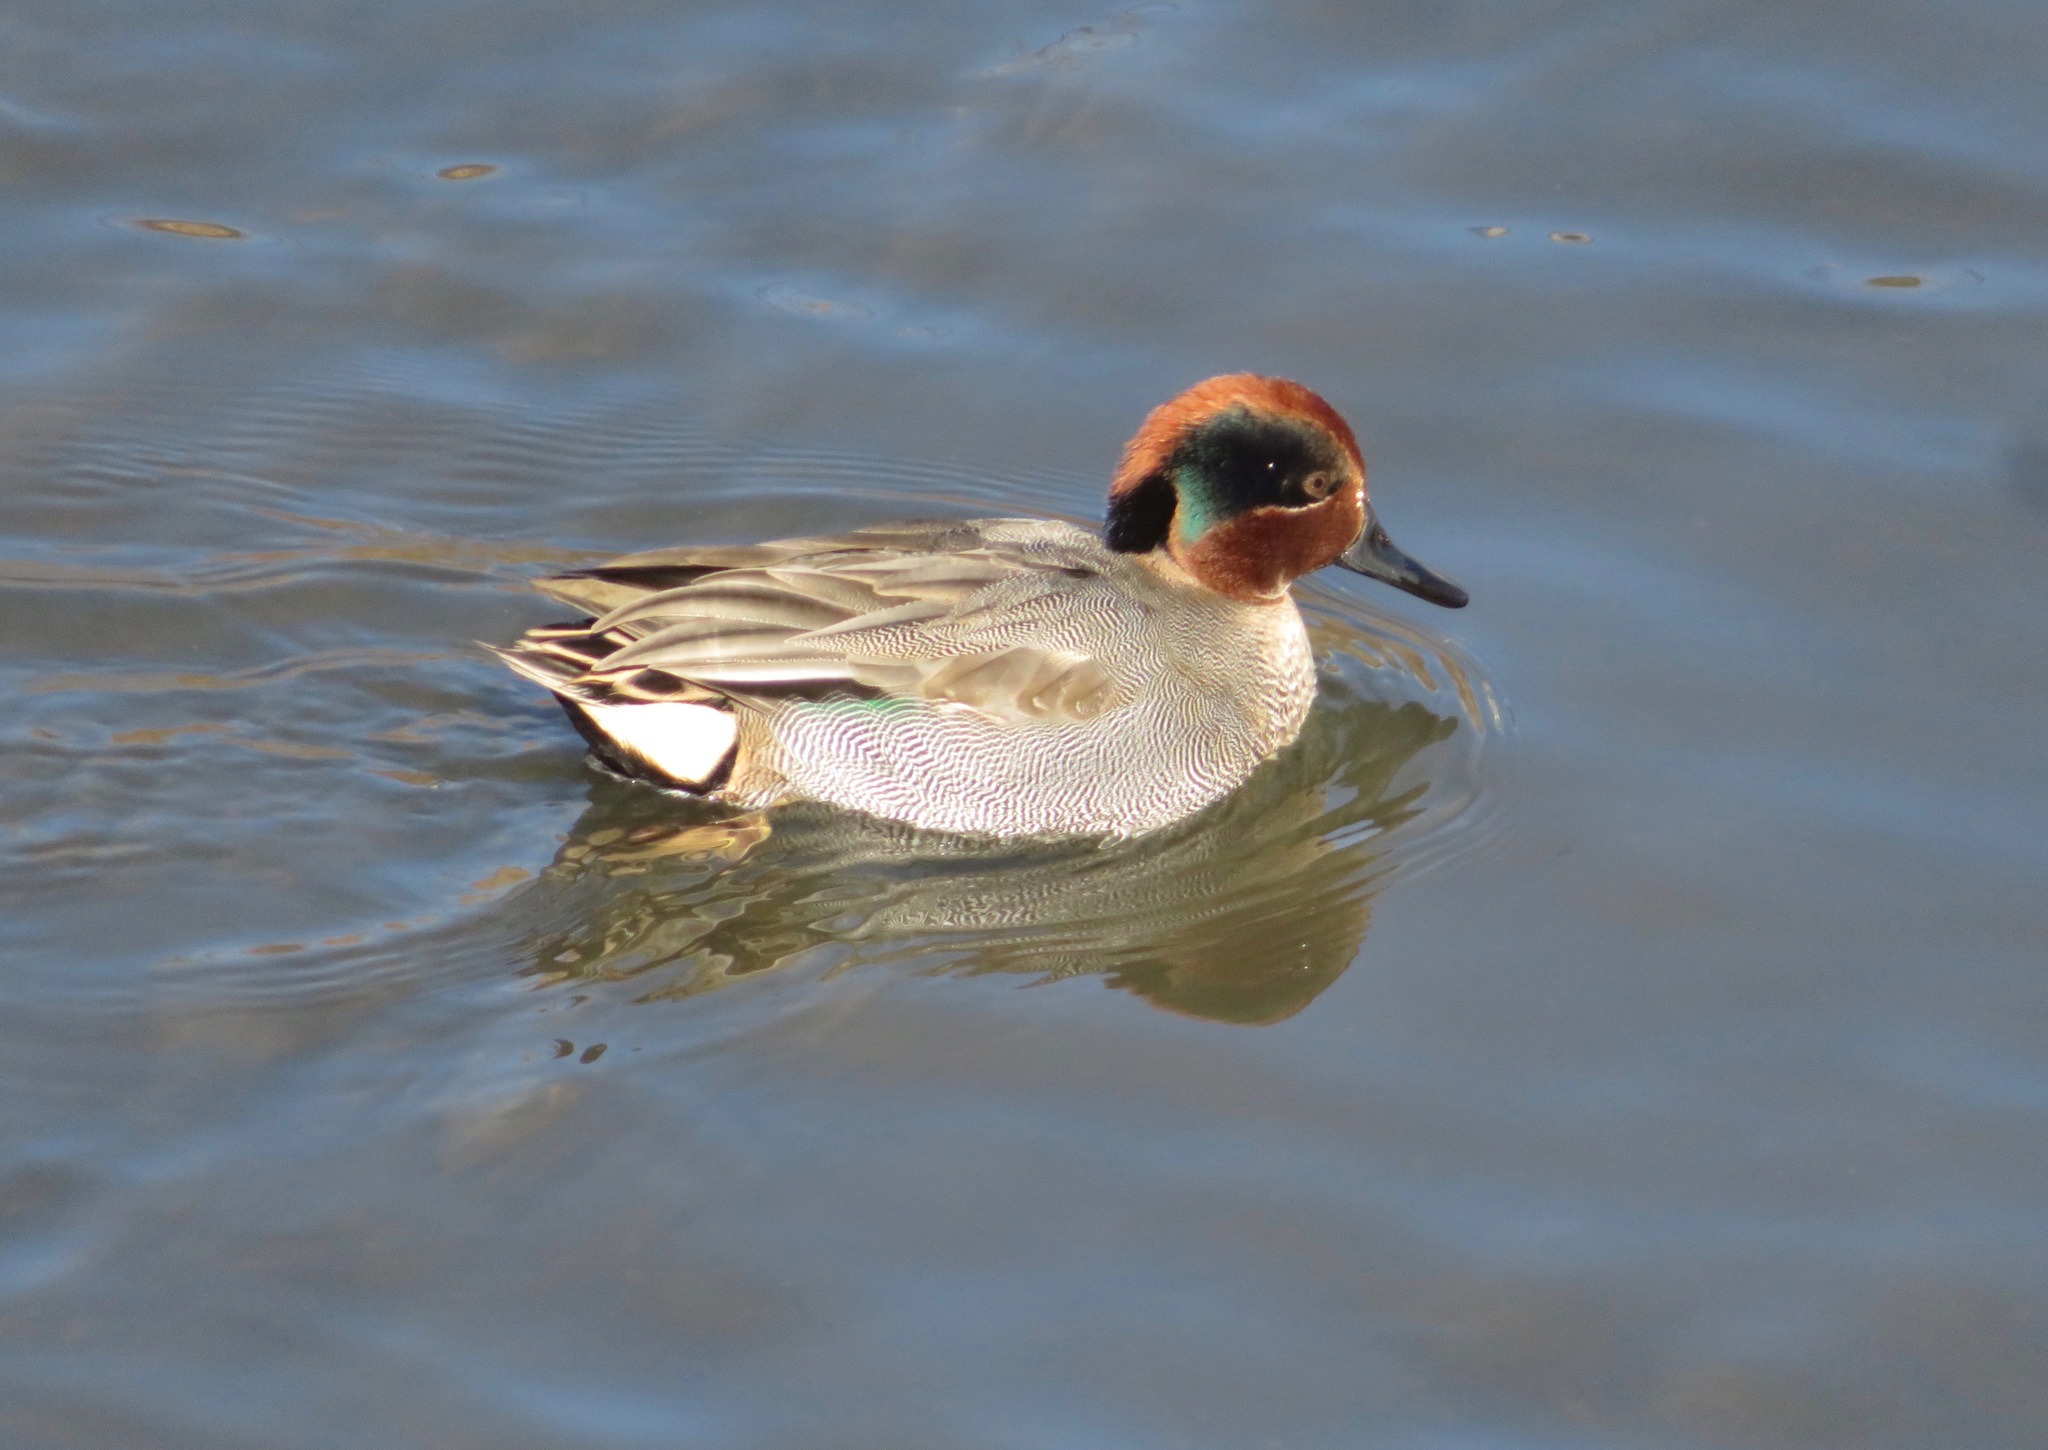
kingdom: Animalia
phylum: Chordata
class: Aves
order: Anseriformes
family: Anatidae
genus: Anas
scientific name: Anas crecca
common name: Eurasian teal
